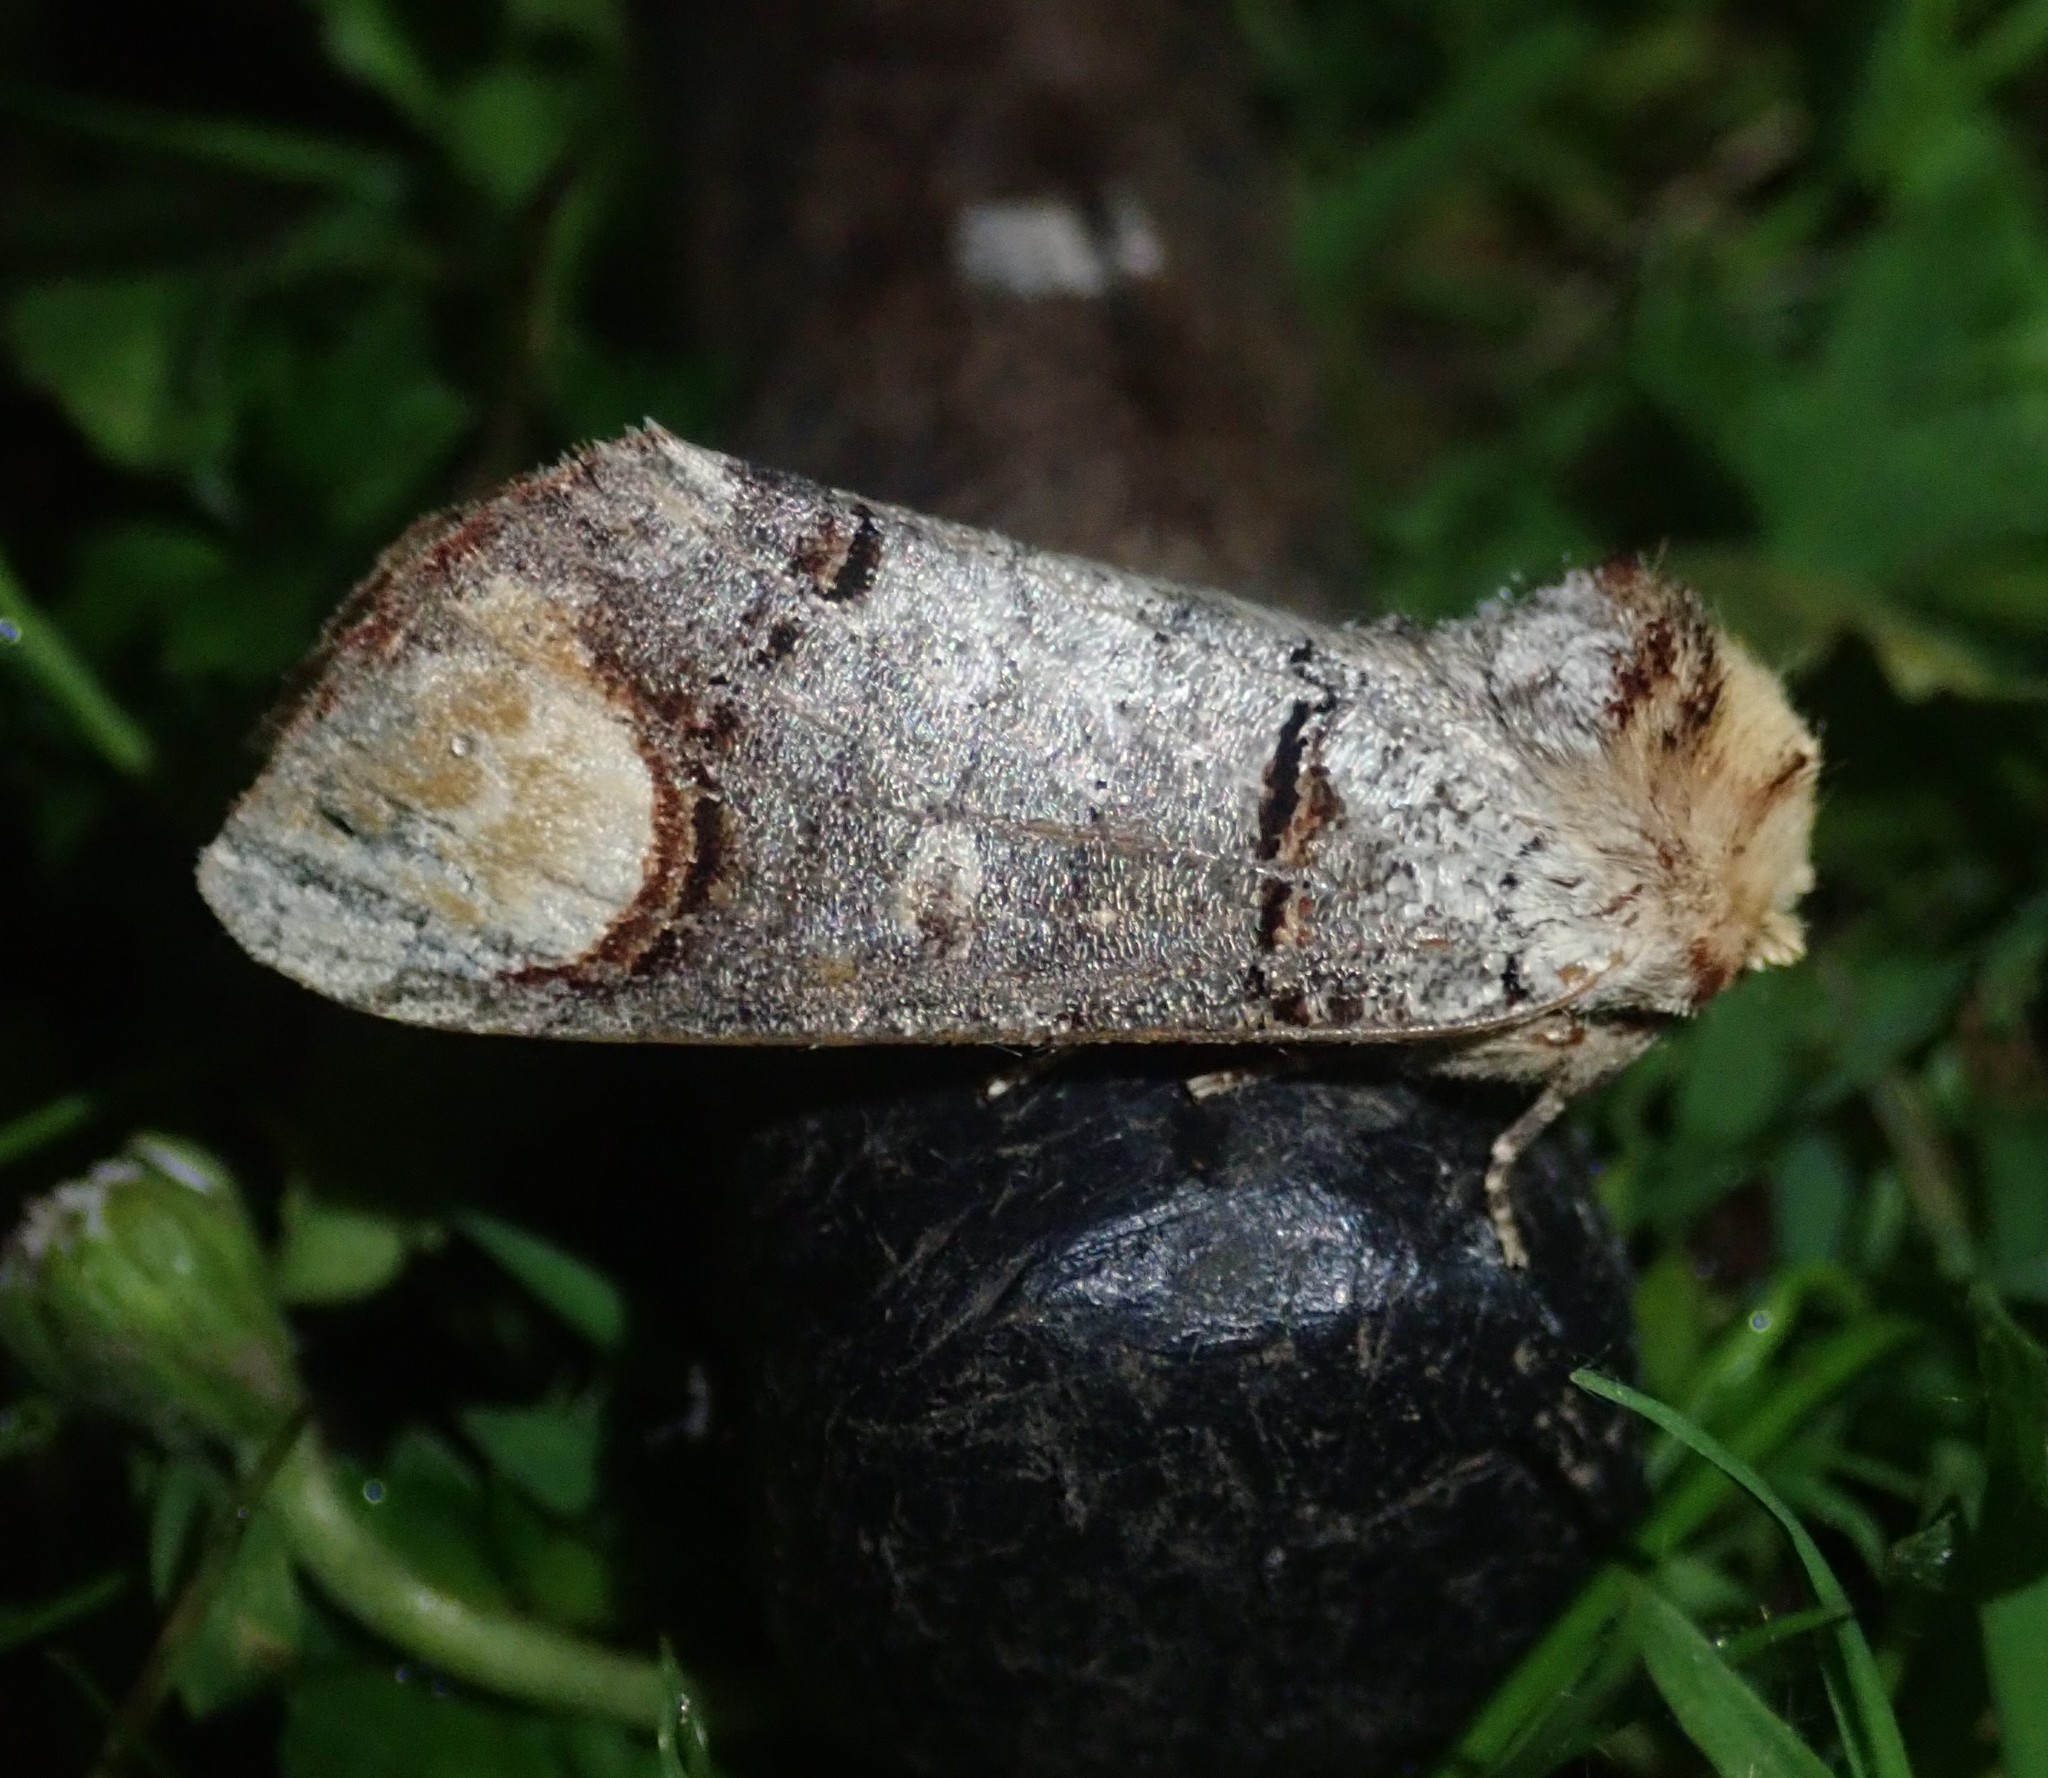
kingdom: Animalia
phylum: Arthropoda
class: Insecta
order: Lepidoptera
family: Notodontidae
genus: Phalera
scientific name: Phalera bucephala
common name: Buff-tip
